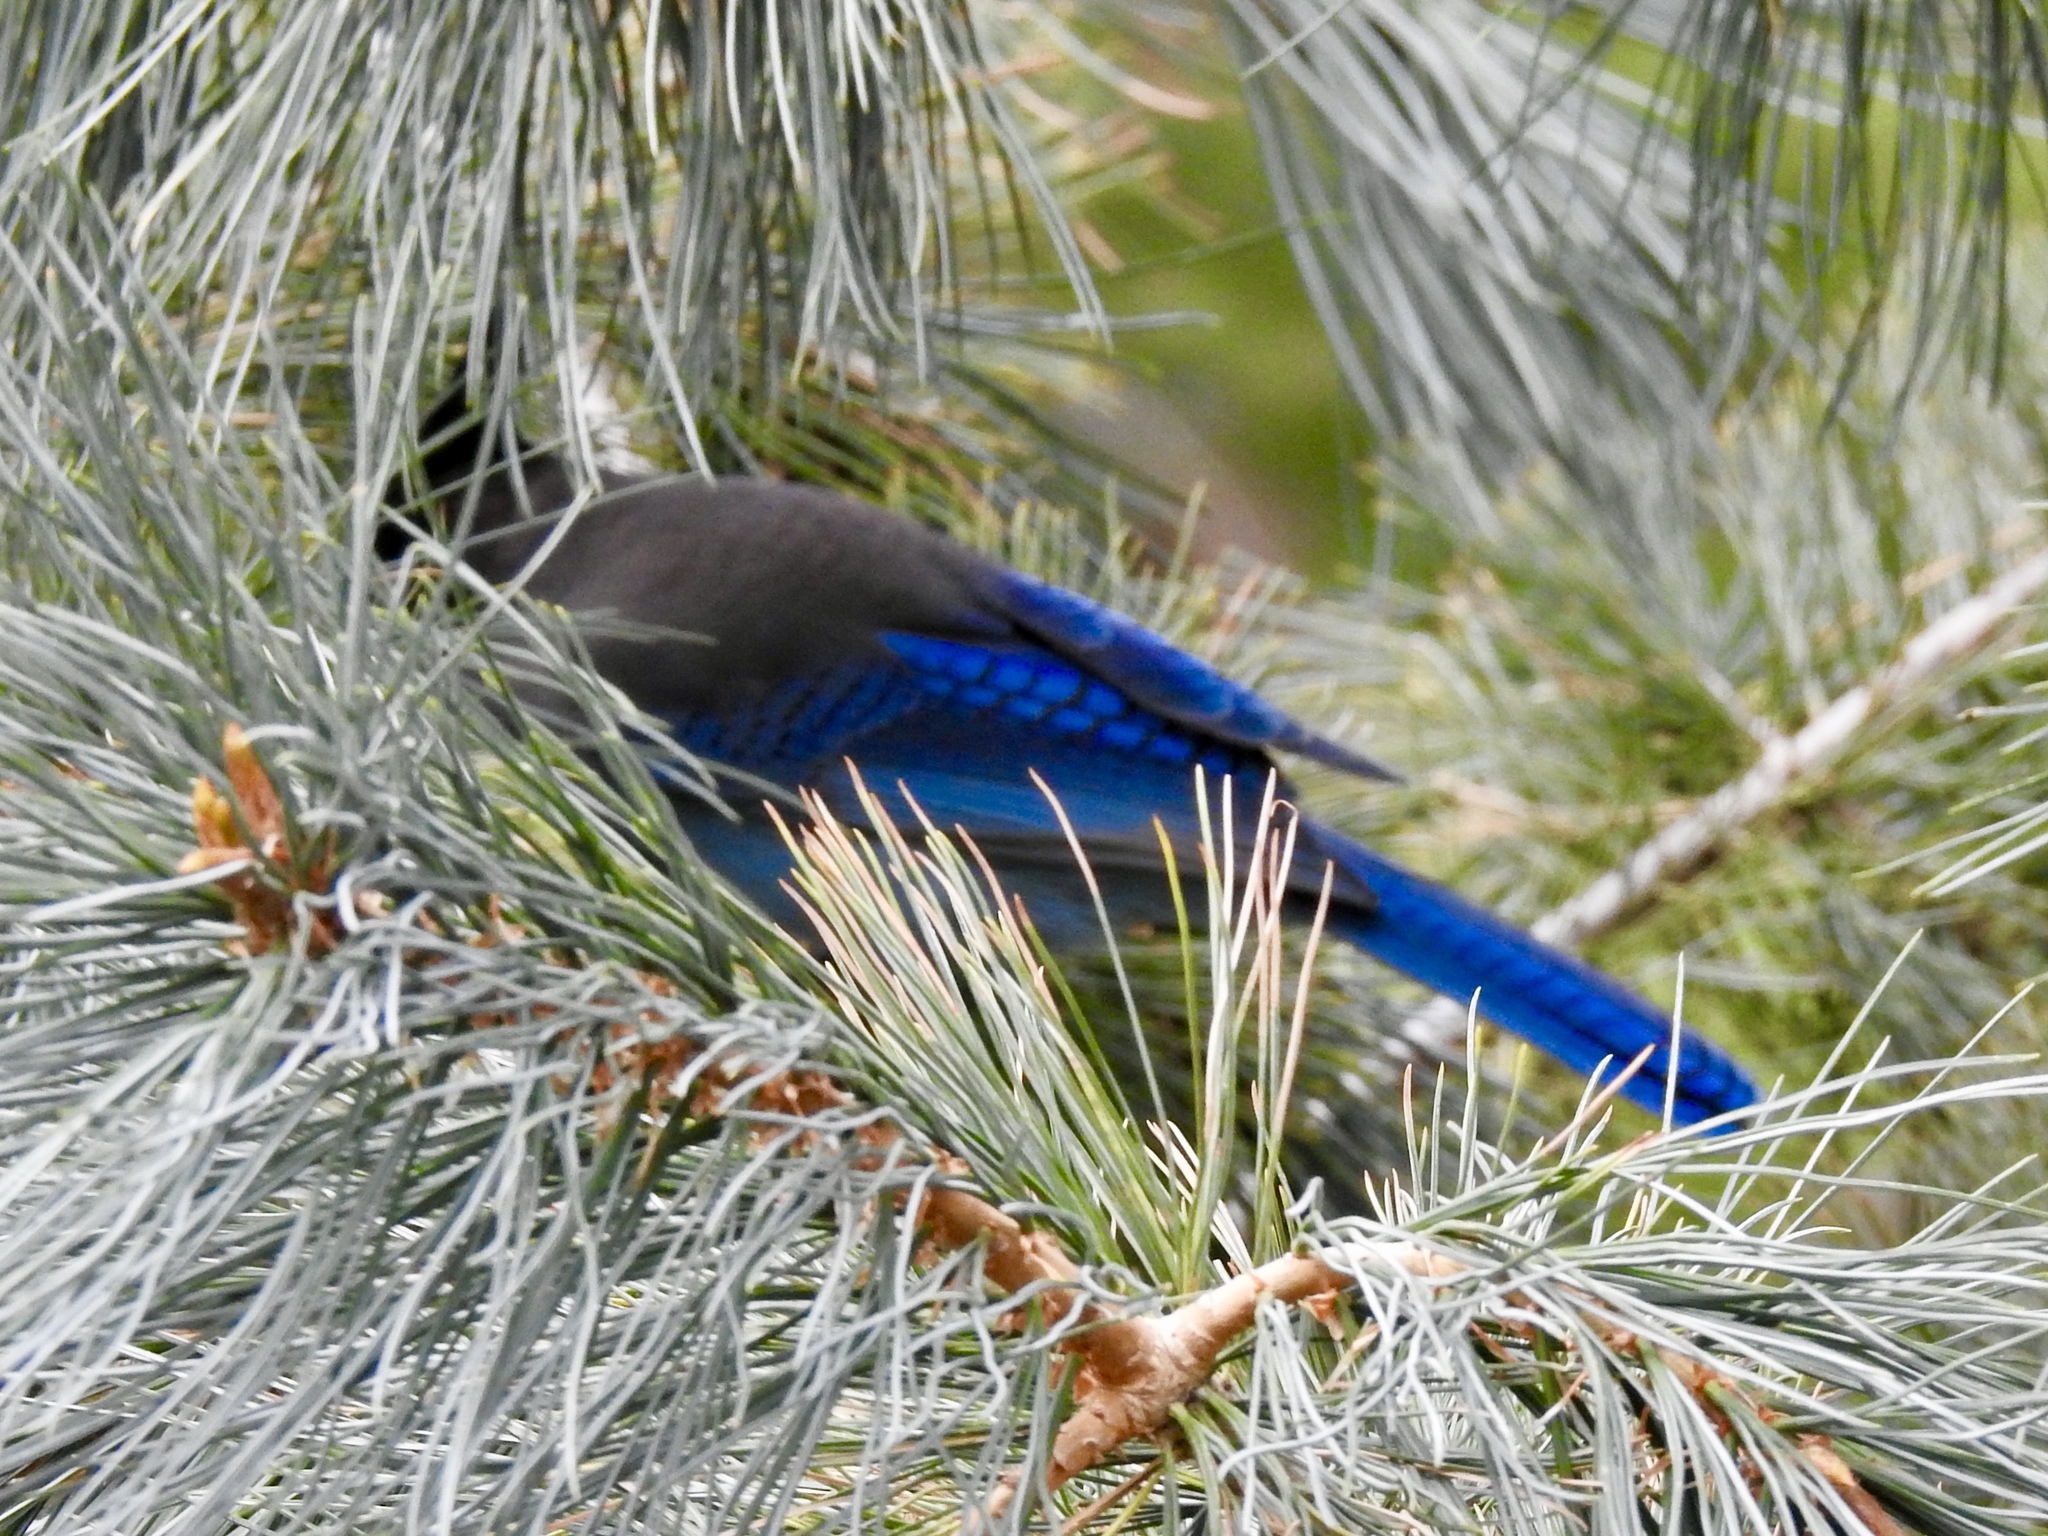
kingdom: Animalia
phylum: Chordata
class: Aves
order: Passeriformes
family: Corvidae
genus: Cyanocitta
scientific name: Cyanocitta stelleri
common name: Steller's jay
